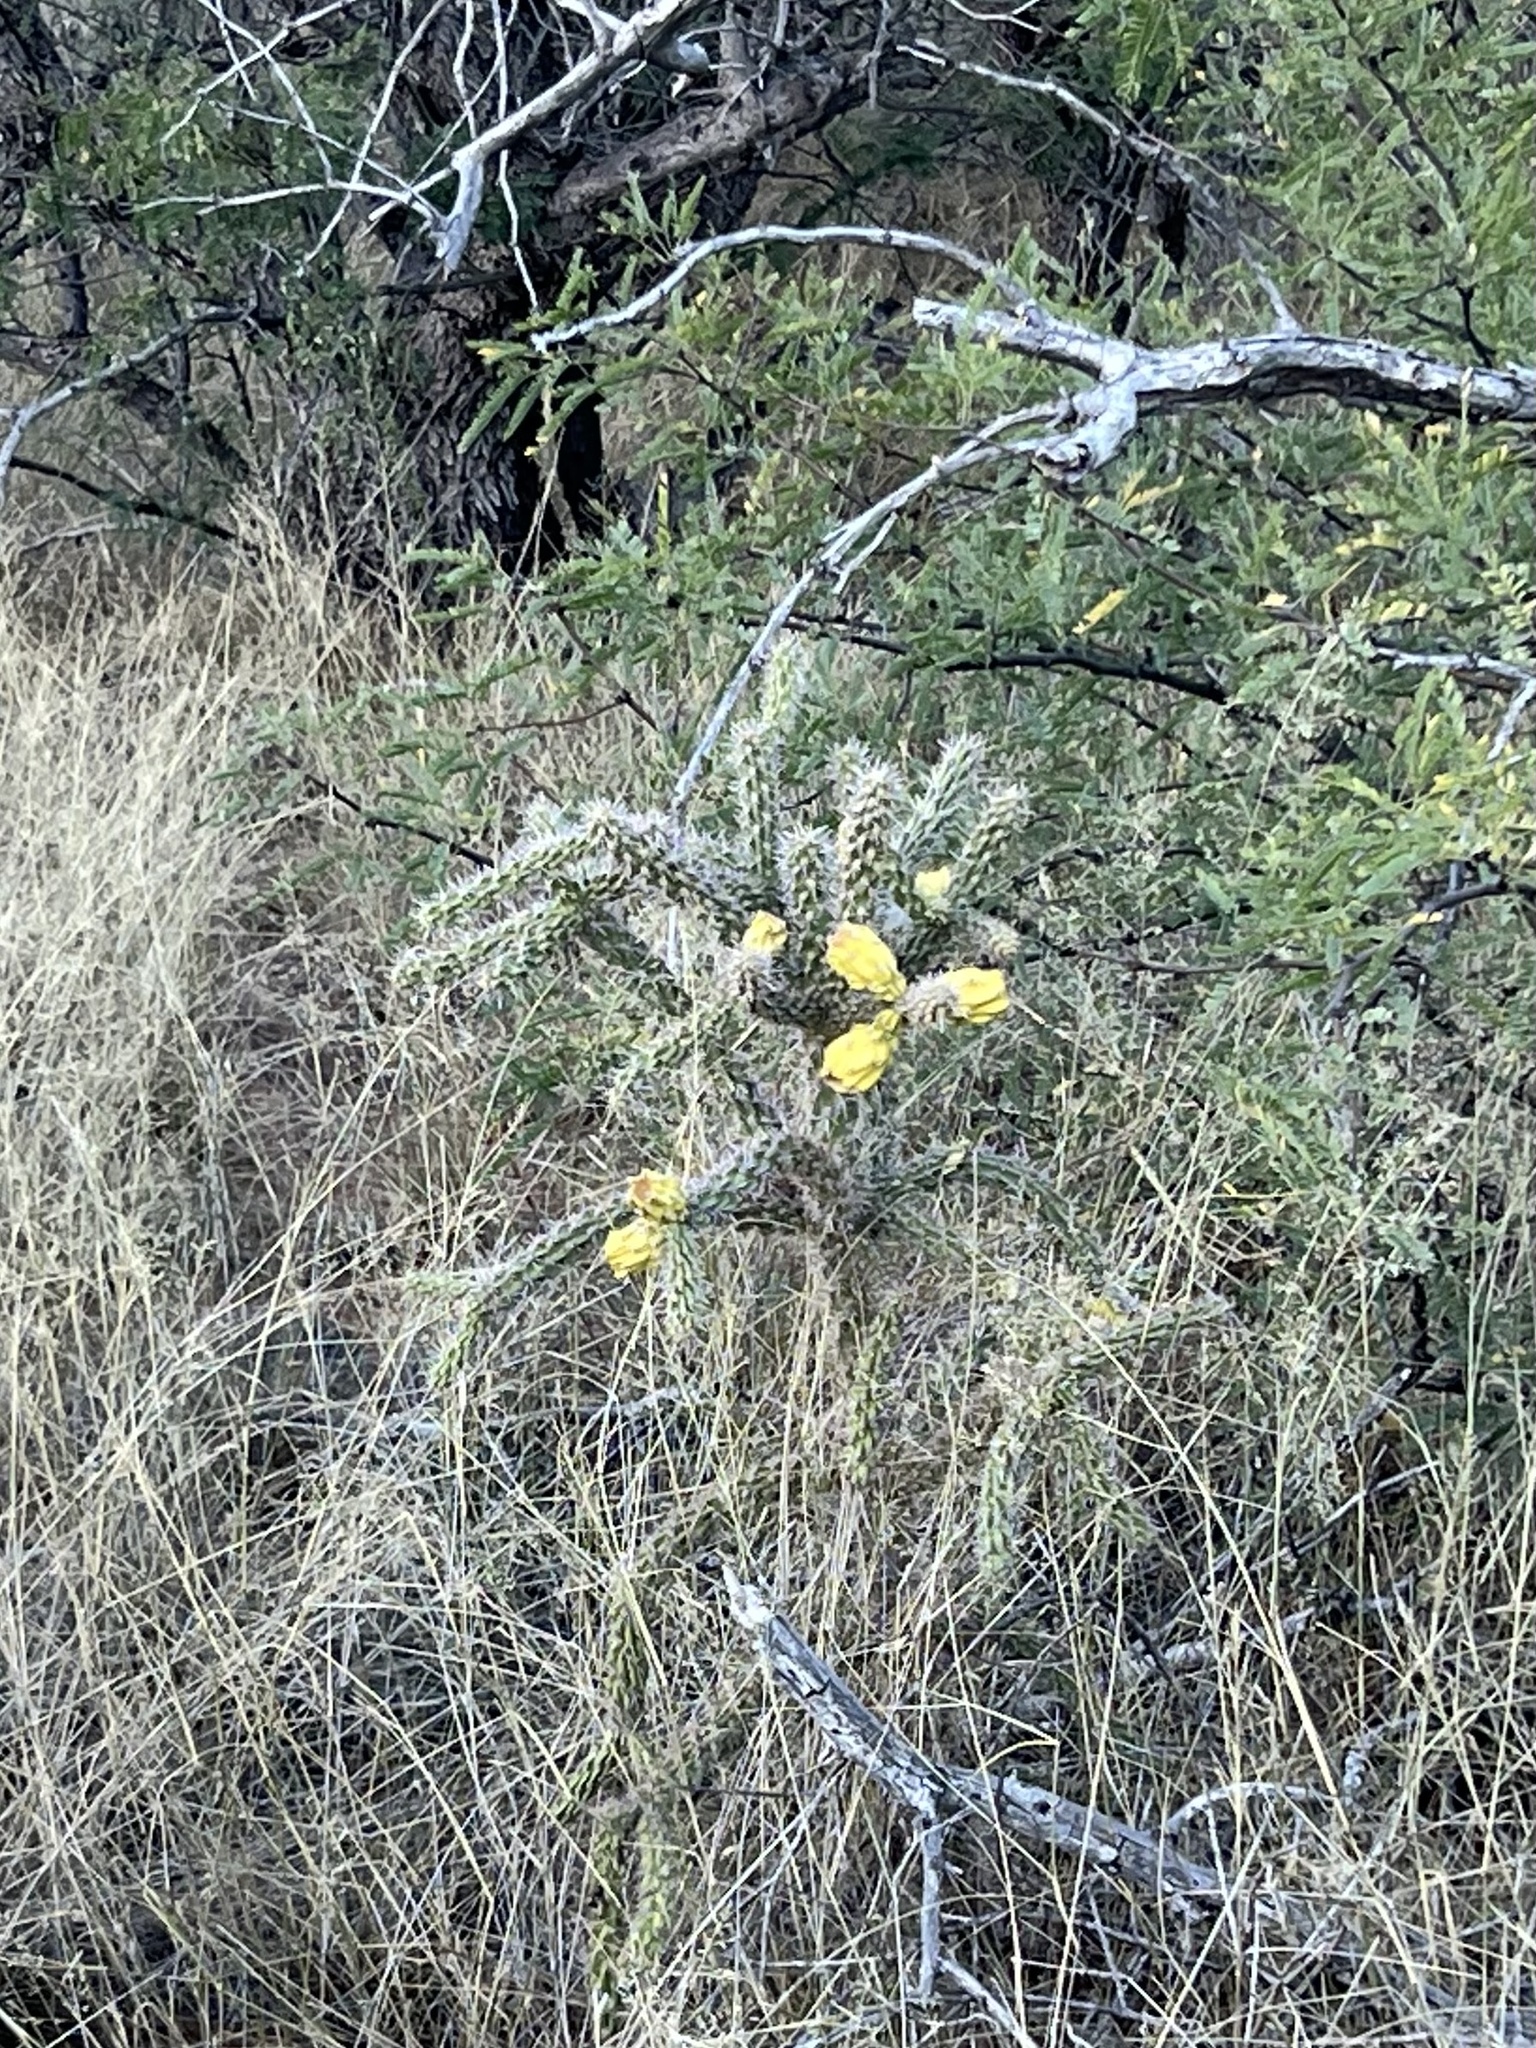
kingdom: Plantae
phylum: Tracheophyta
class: Magnoliopsida
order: Caryophyllales
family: Cactaceae
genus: Cylindropuntia
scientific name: Cylindropuntia imbricata
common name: Candelabrum cactus
